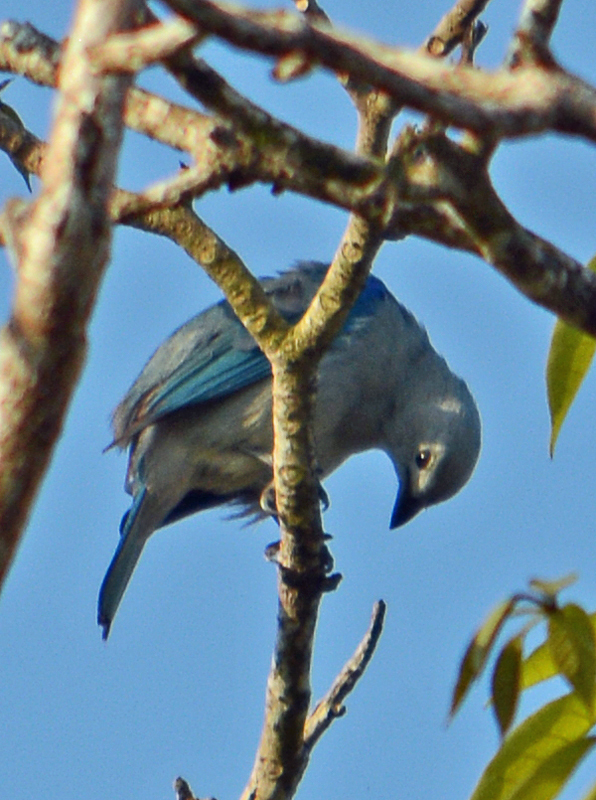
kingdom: Animalia
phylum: Chordata
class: Aves
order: Passeriformes
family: Thraupidae
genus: Thraupis
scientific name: Thraupis episcopus
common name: Blue-grey tanager
